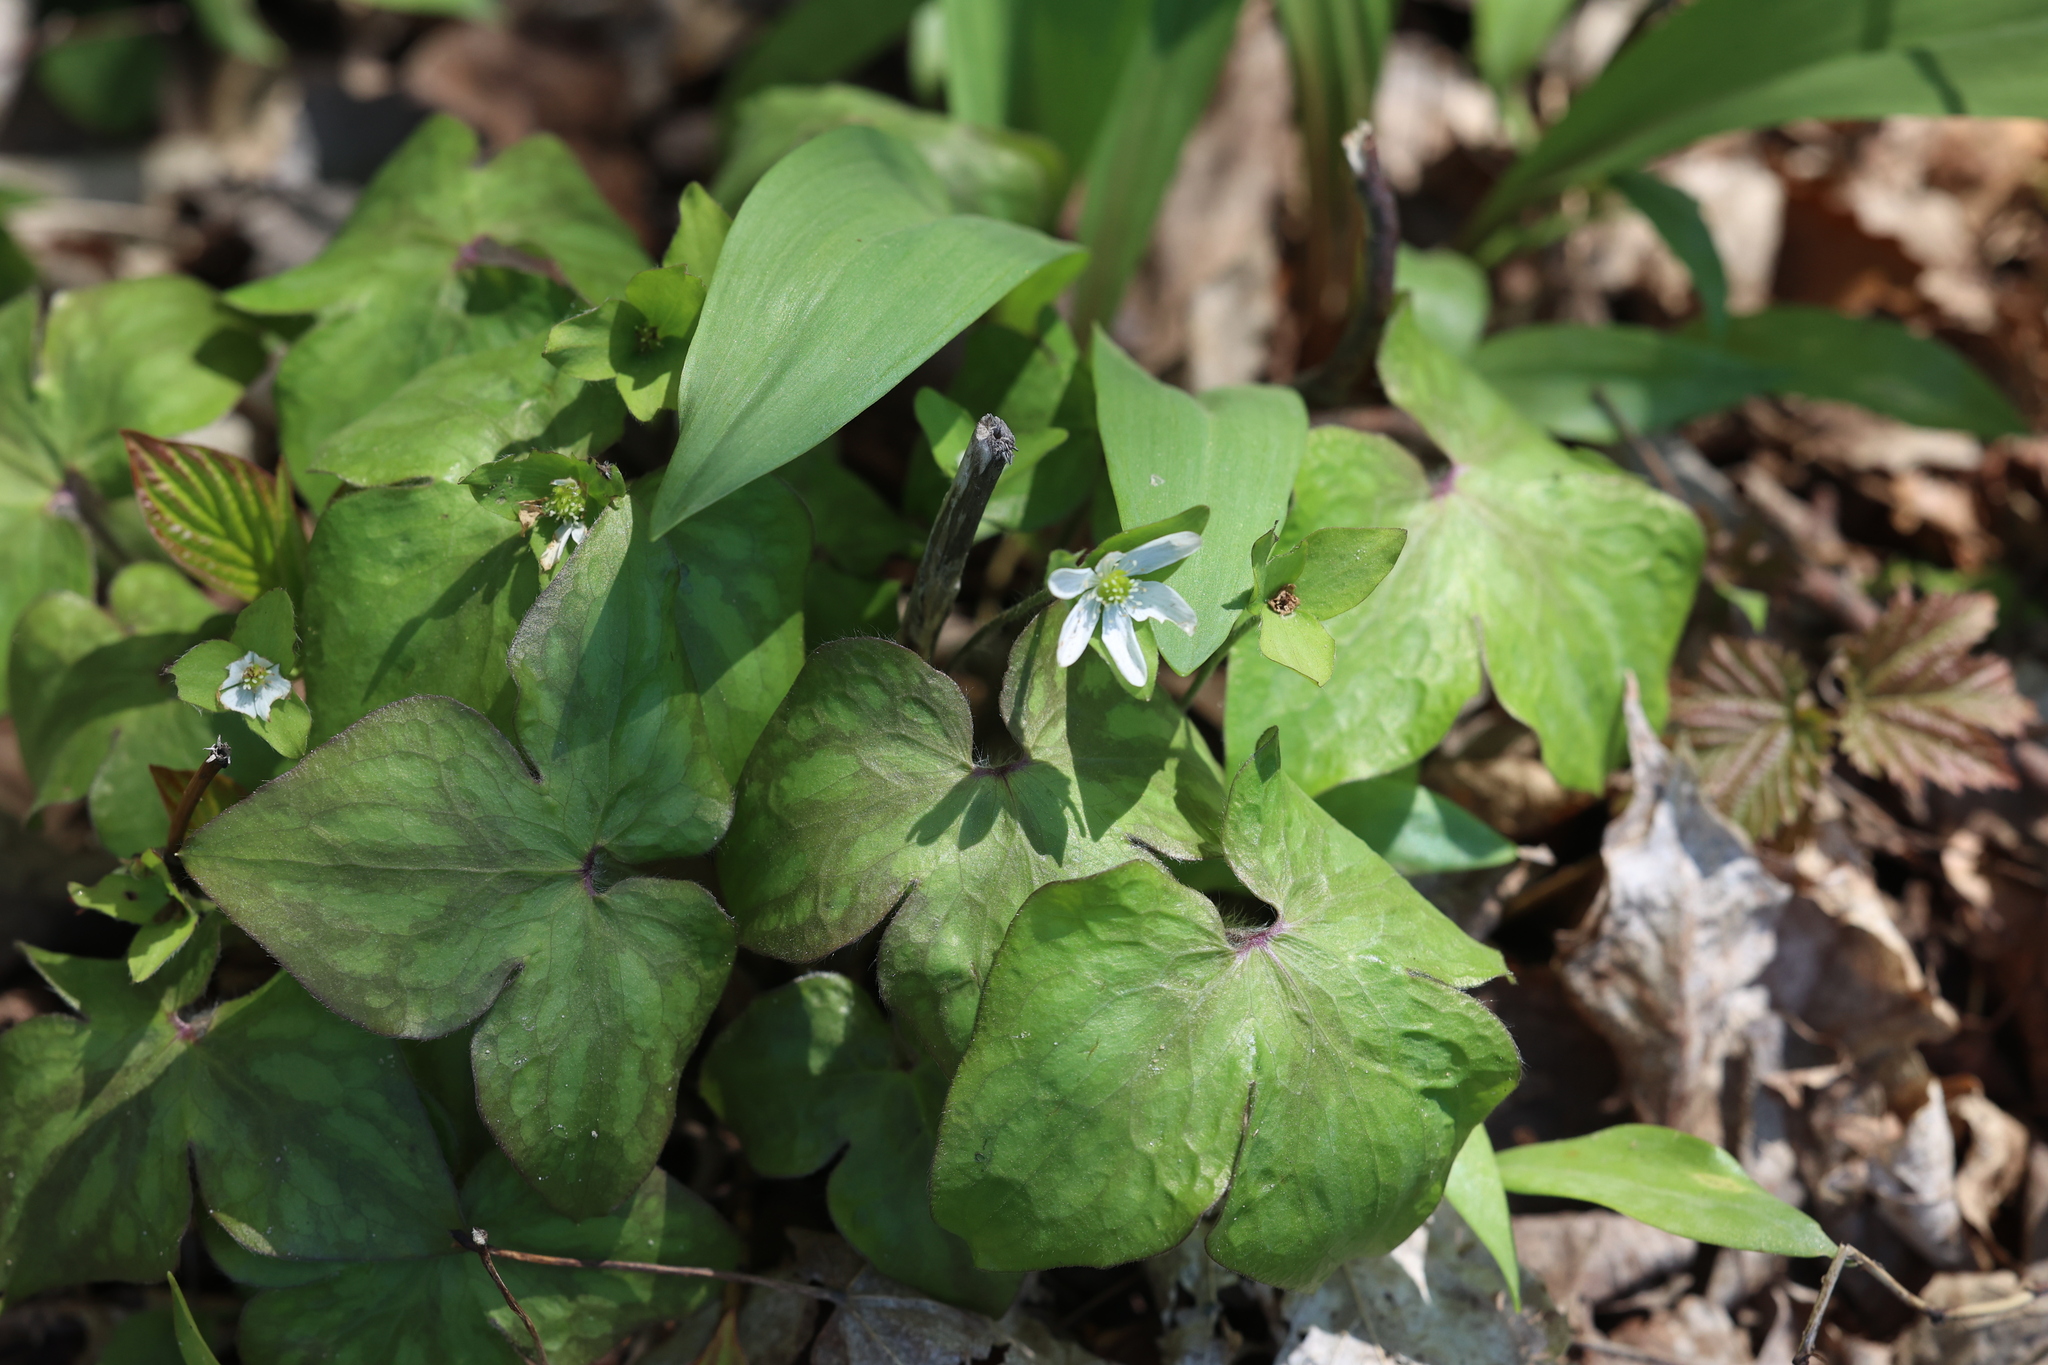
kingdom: Plantae
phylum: Tracheophyta
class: Magnoliopsida
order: Ranunculales
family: Ranunculaceae
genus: Hepatica
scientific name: Hepatica acutiloba
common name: Sharp-lobed hepatica
